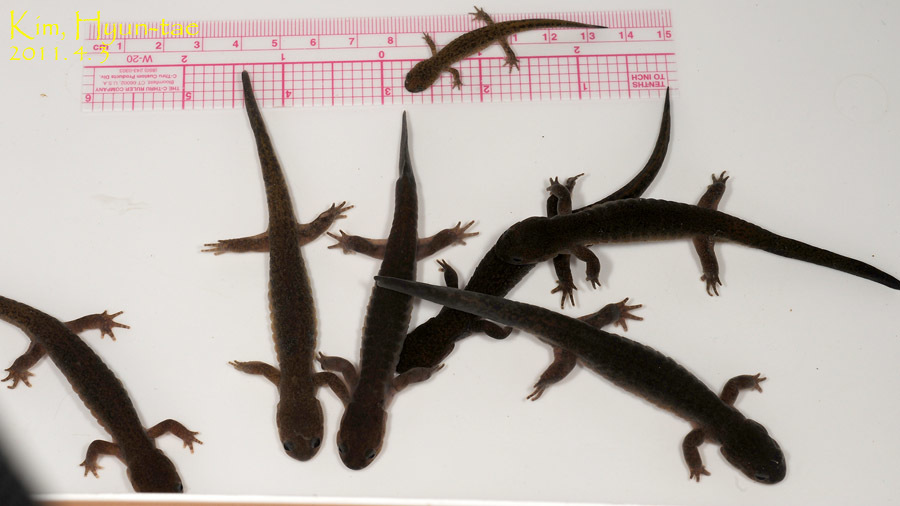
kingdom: Animalia
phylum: Chordata
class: Amphibia
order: Caudata
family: Hynobiidae
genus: Hynobius
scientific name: Hynobius geojeensis
